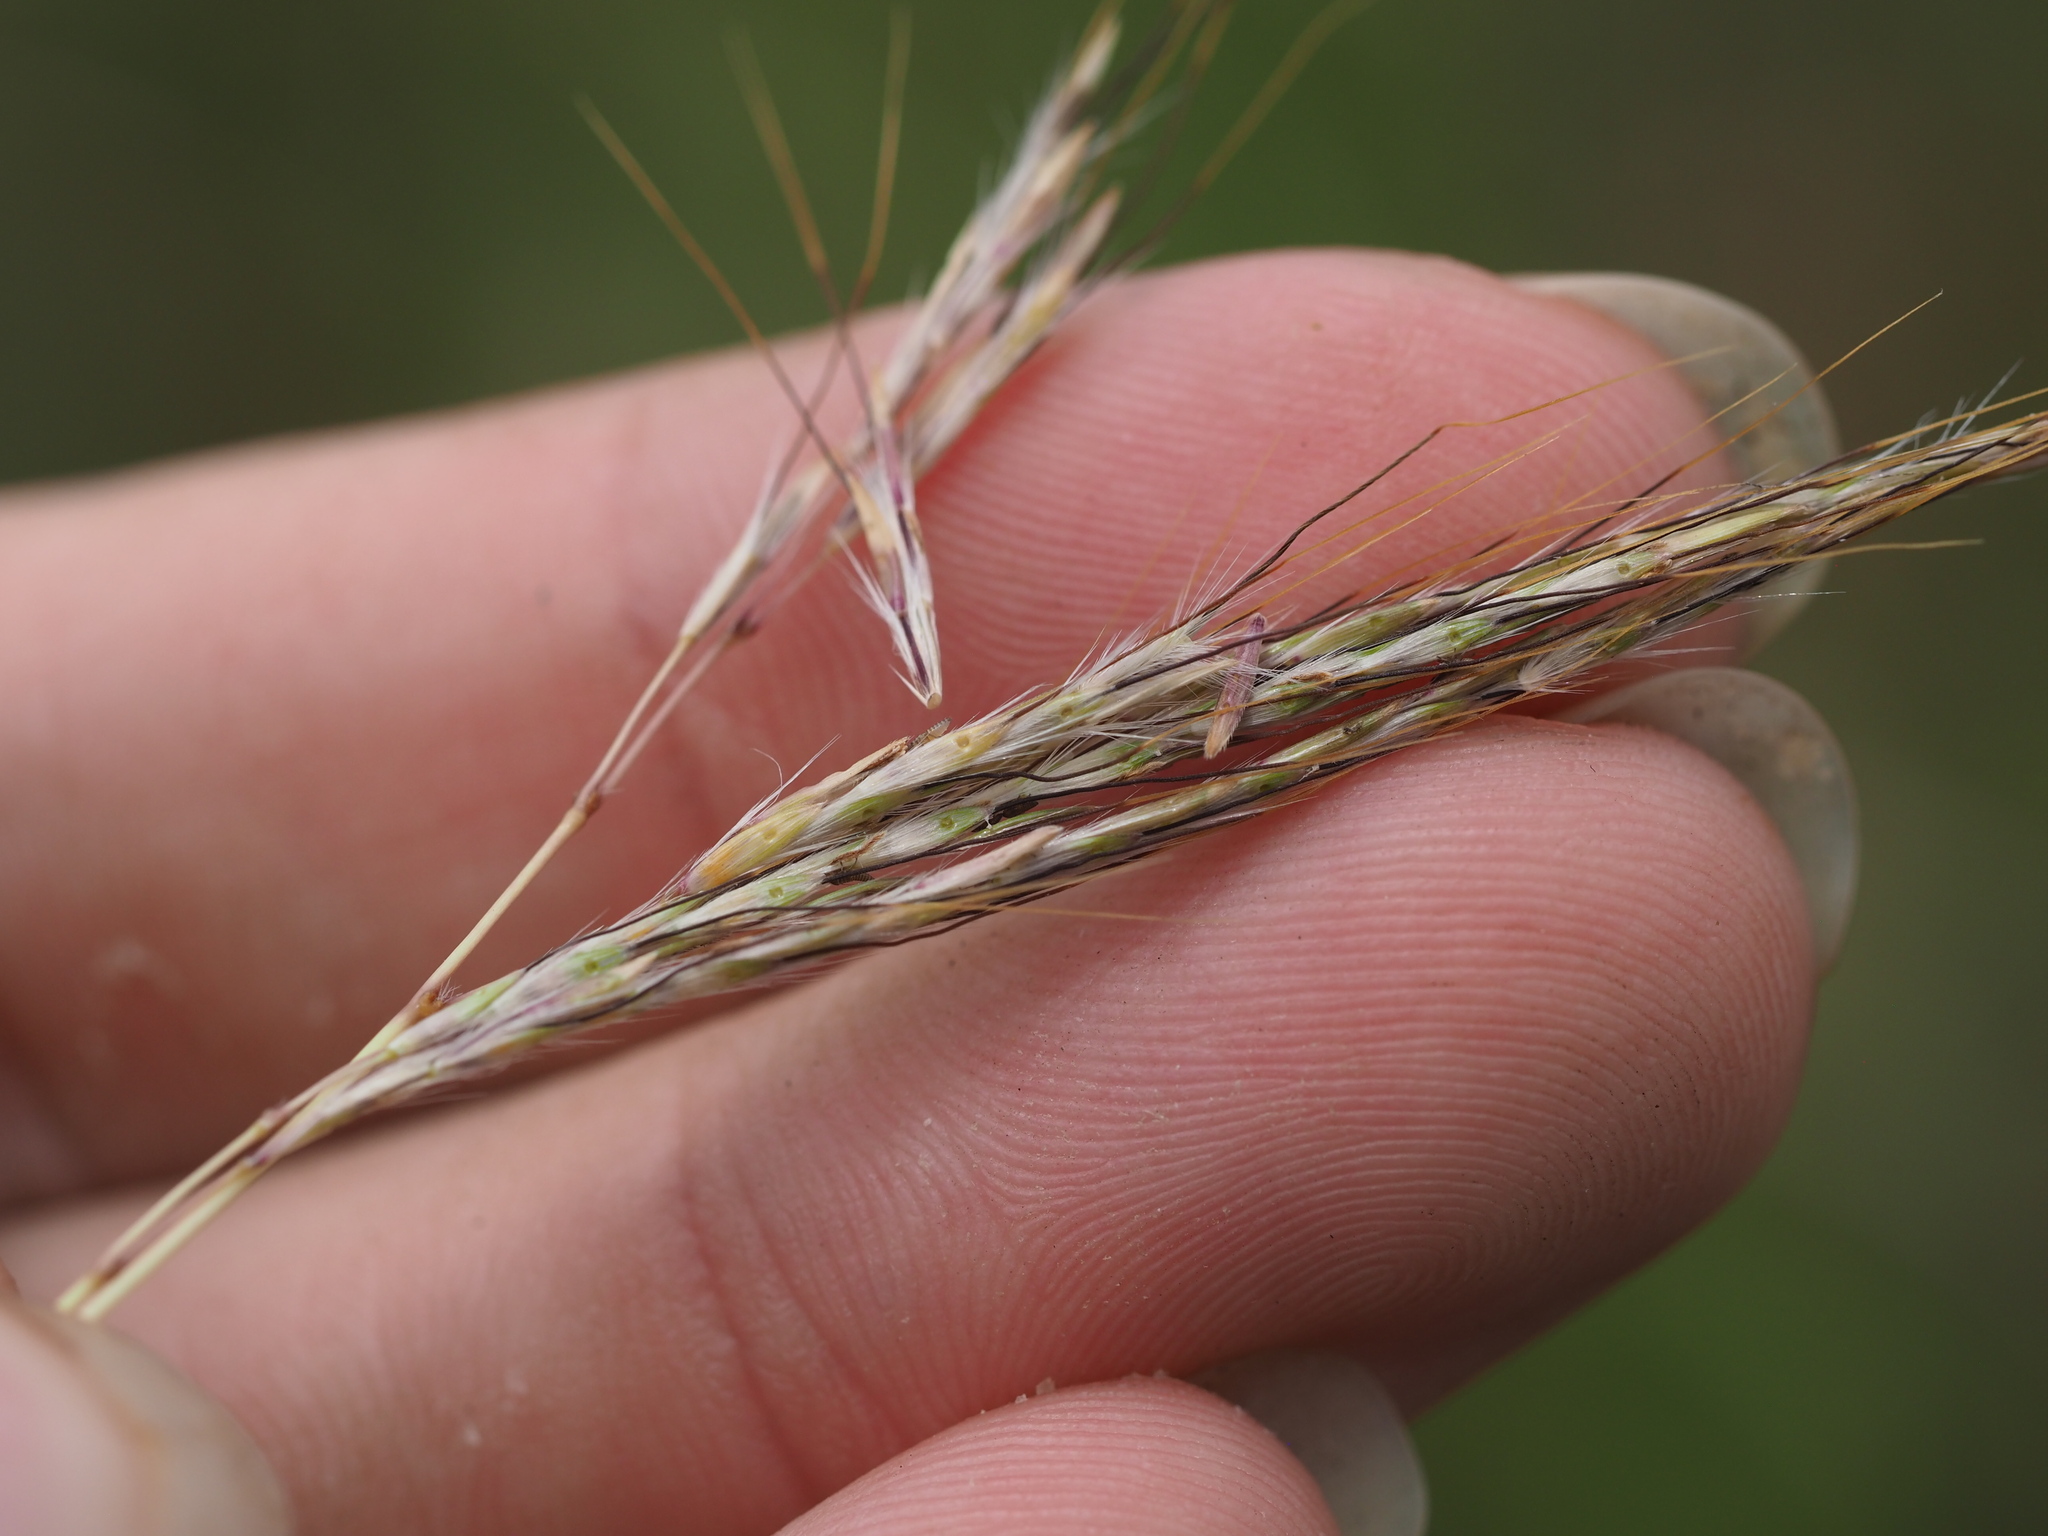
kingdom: Plantae
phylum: Tracheophyta
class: Liliopsida
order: Poales
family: Poaceae
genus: Bothriochloa
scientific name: Bothriochloa pertusa
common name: Pitted beardgrass
